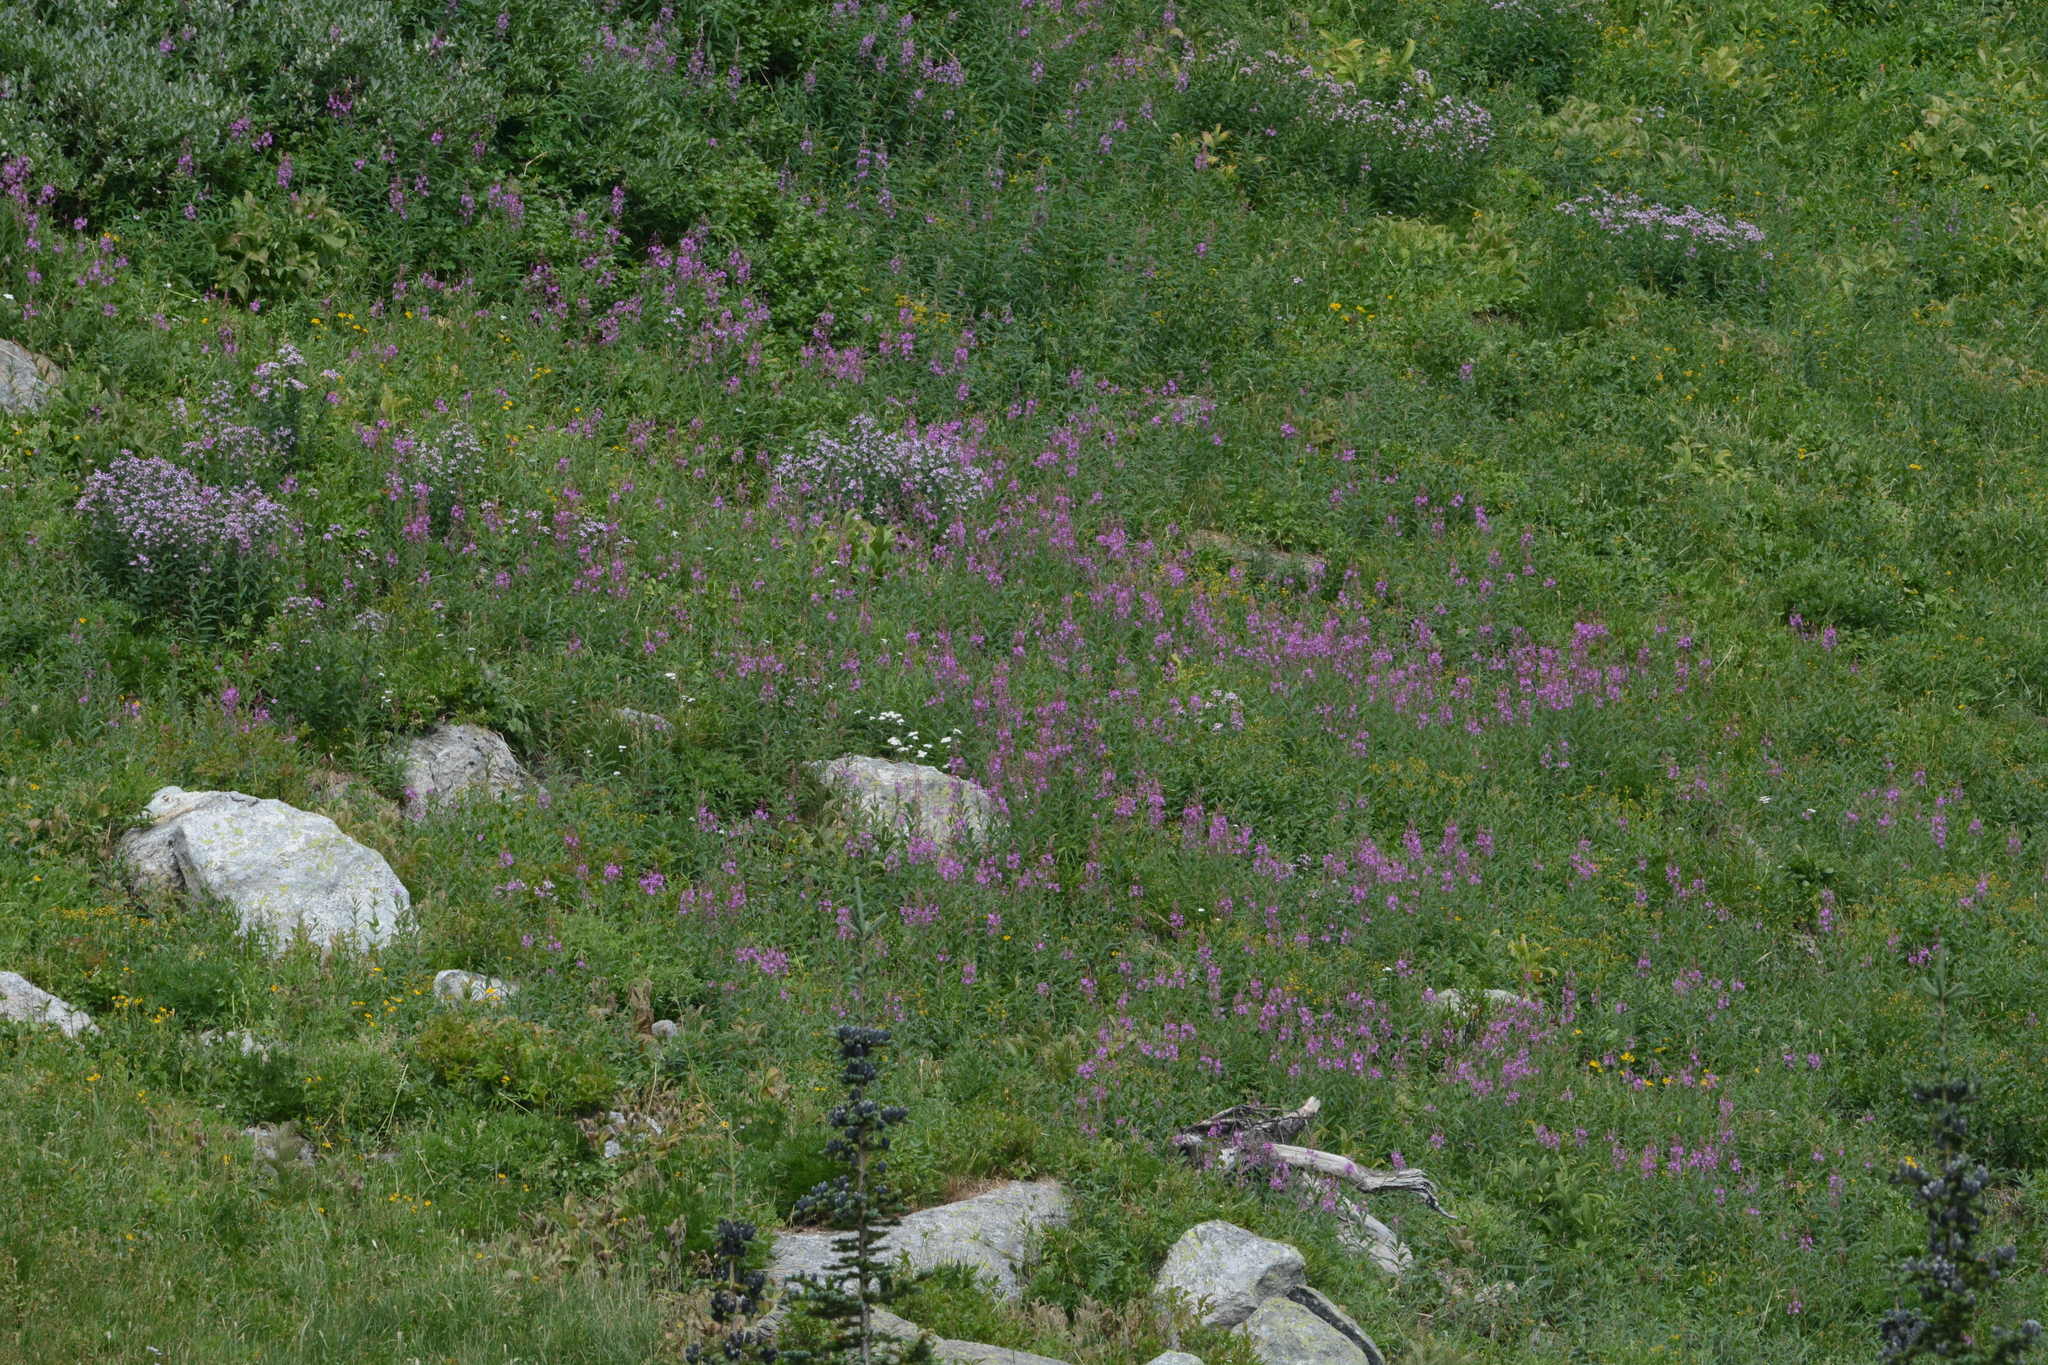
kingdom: Plantae
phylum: Tracheophyta
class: Magnoliopsida
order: Myrtales
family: Onagraceae
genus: Chamaenerion
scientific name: Chamaenerion angustifolium
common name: Fireweed
